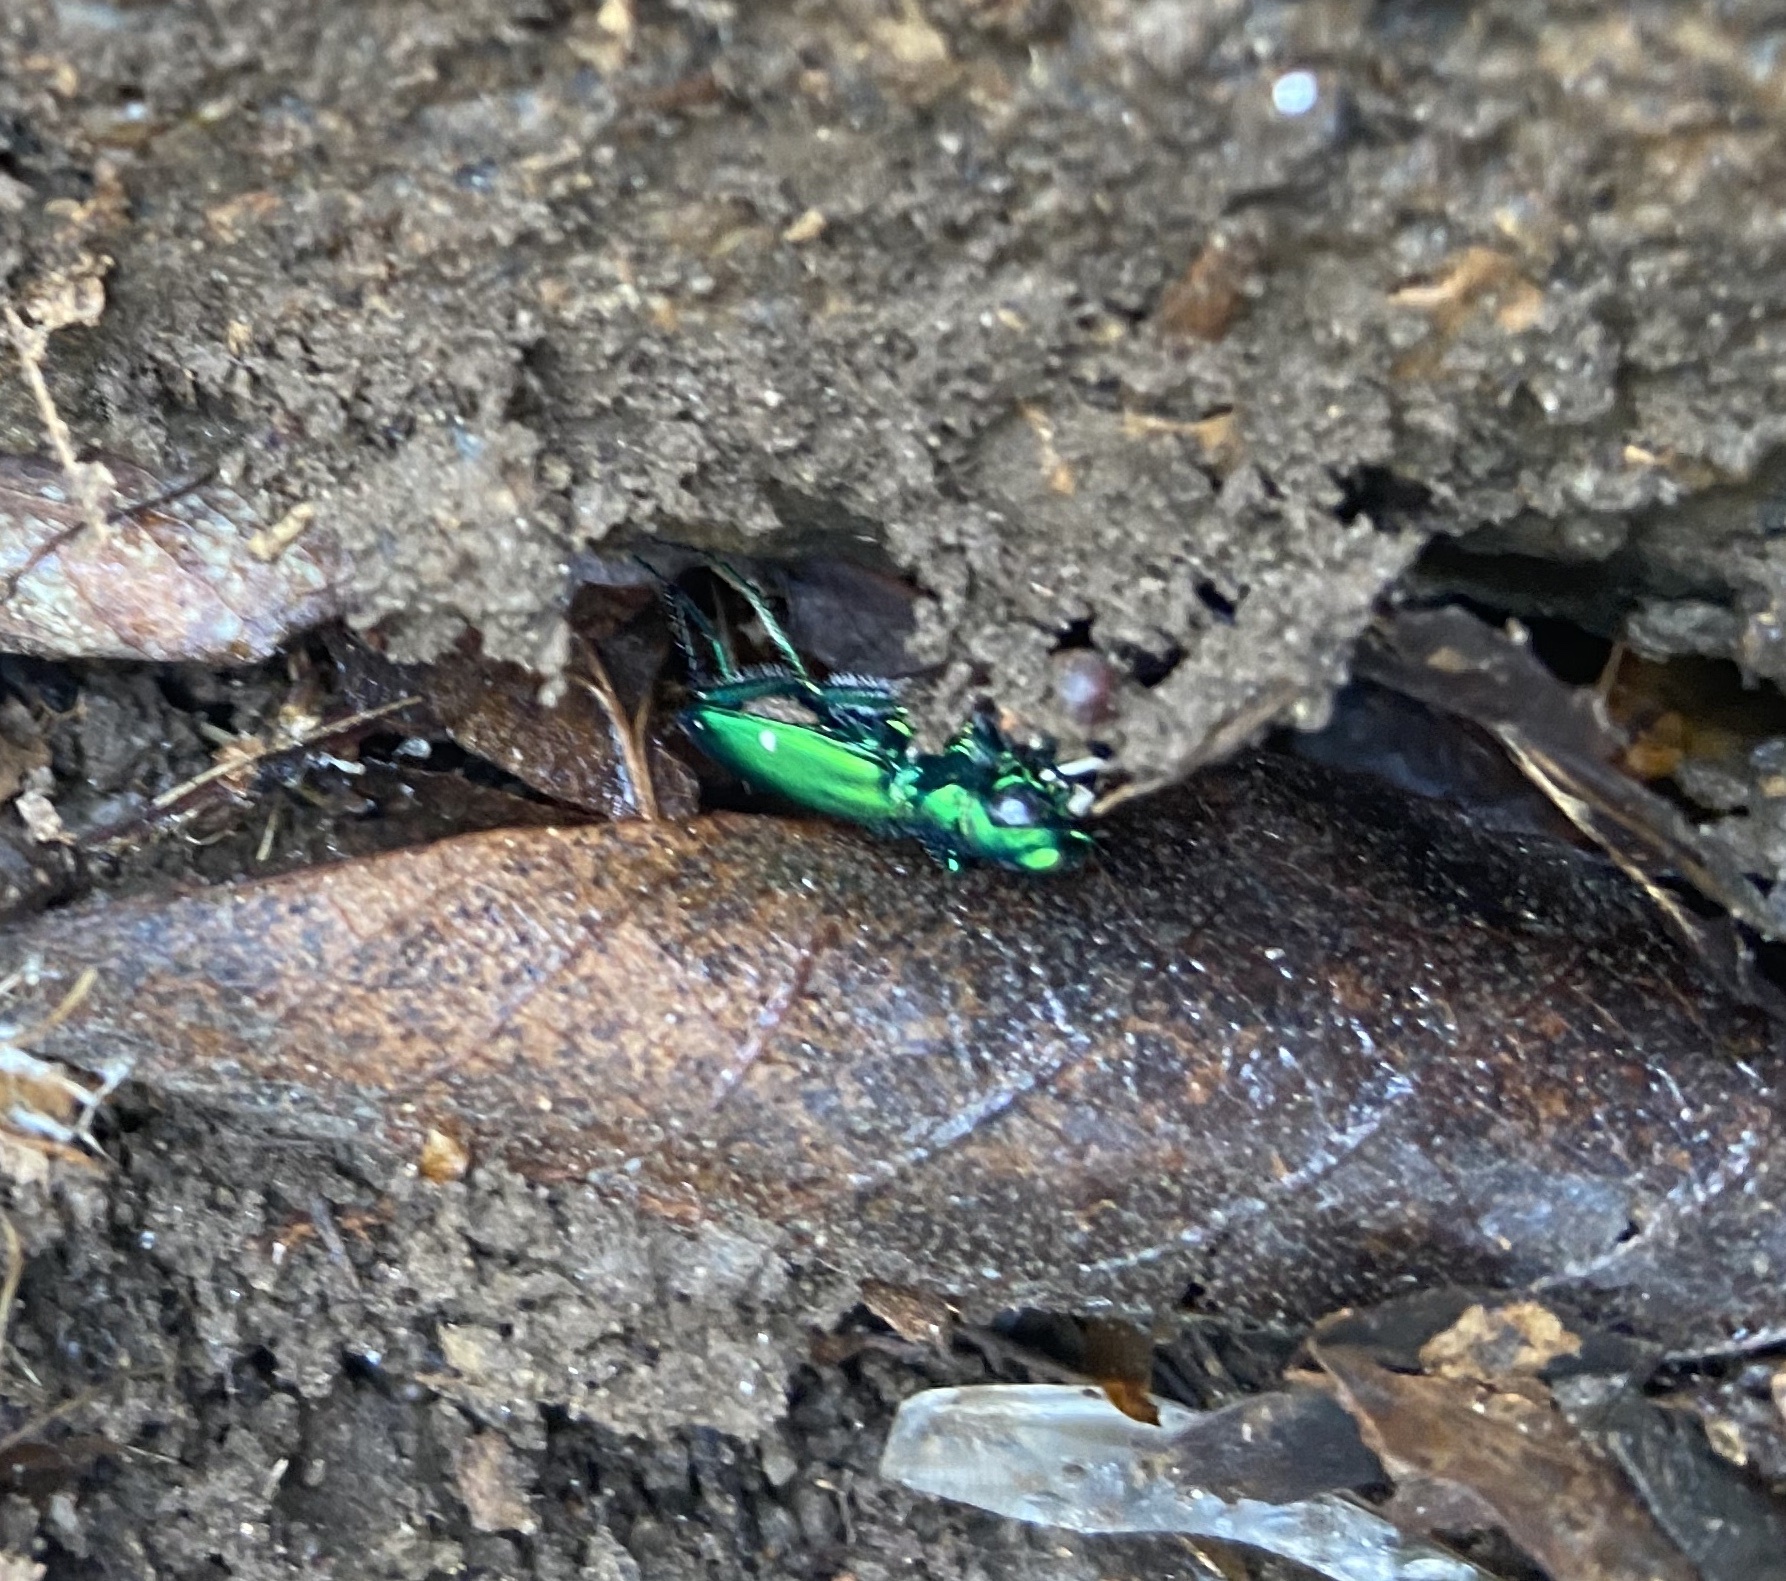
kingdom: Animalia
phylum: Arthropoda
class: Insecta
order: Coleoptera
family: Carabidae
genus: Cicindela
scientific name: Cicindela sexguttata
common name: Six-spotted tiger beetle
